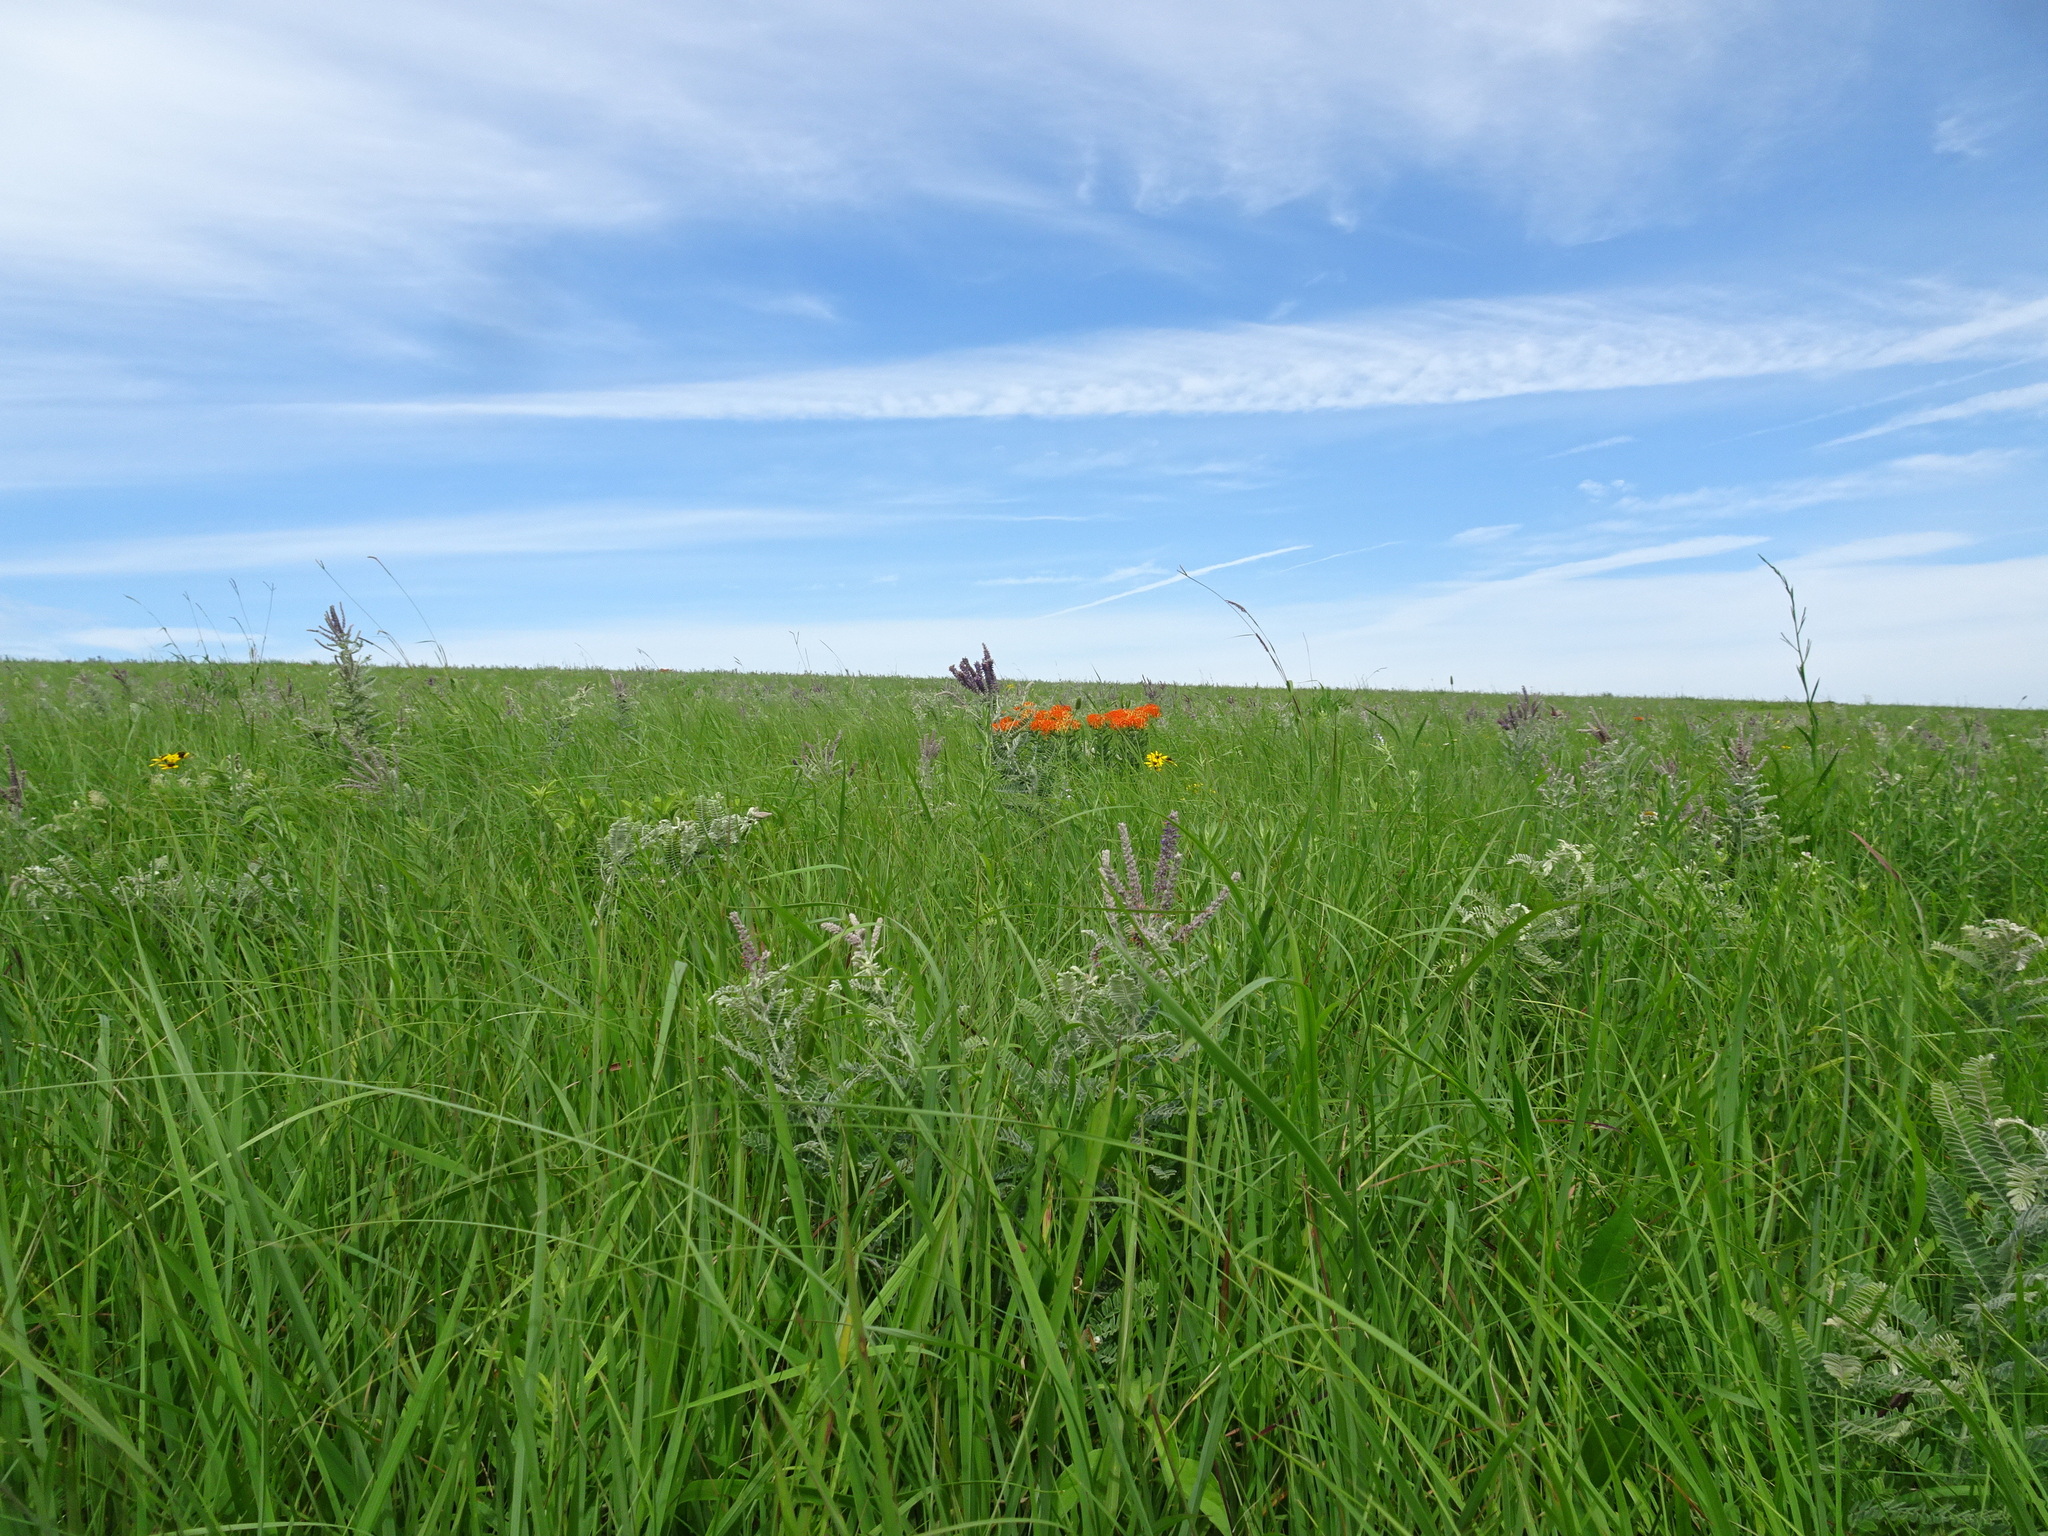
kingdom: Plantae
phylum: Tracheophyta
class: Magnoliopsida
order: Gentianales
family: Apocynaceae
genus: Asclepias
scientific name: Asclepias tuberosa
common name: Butterfly milkweed
